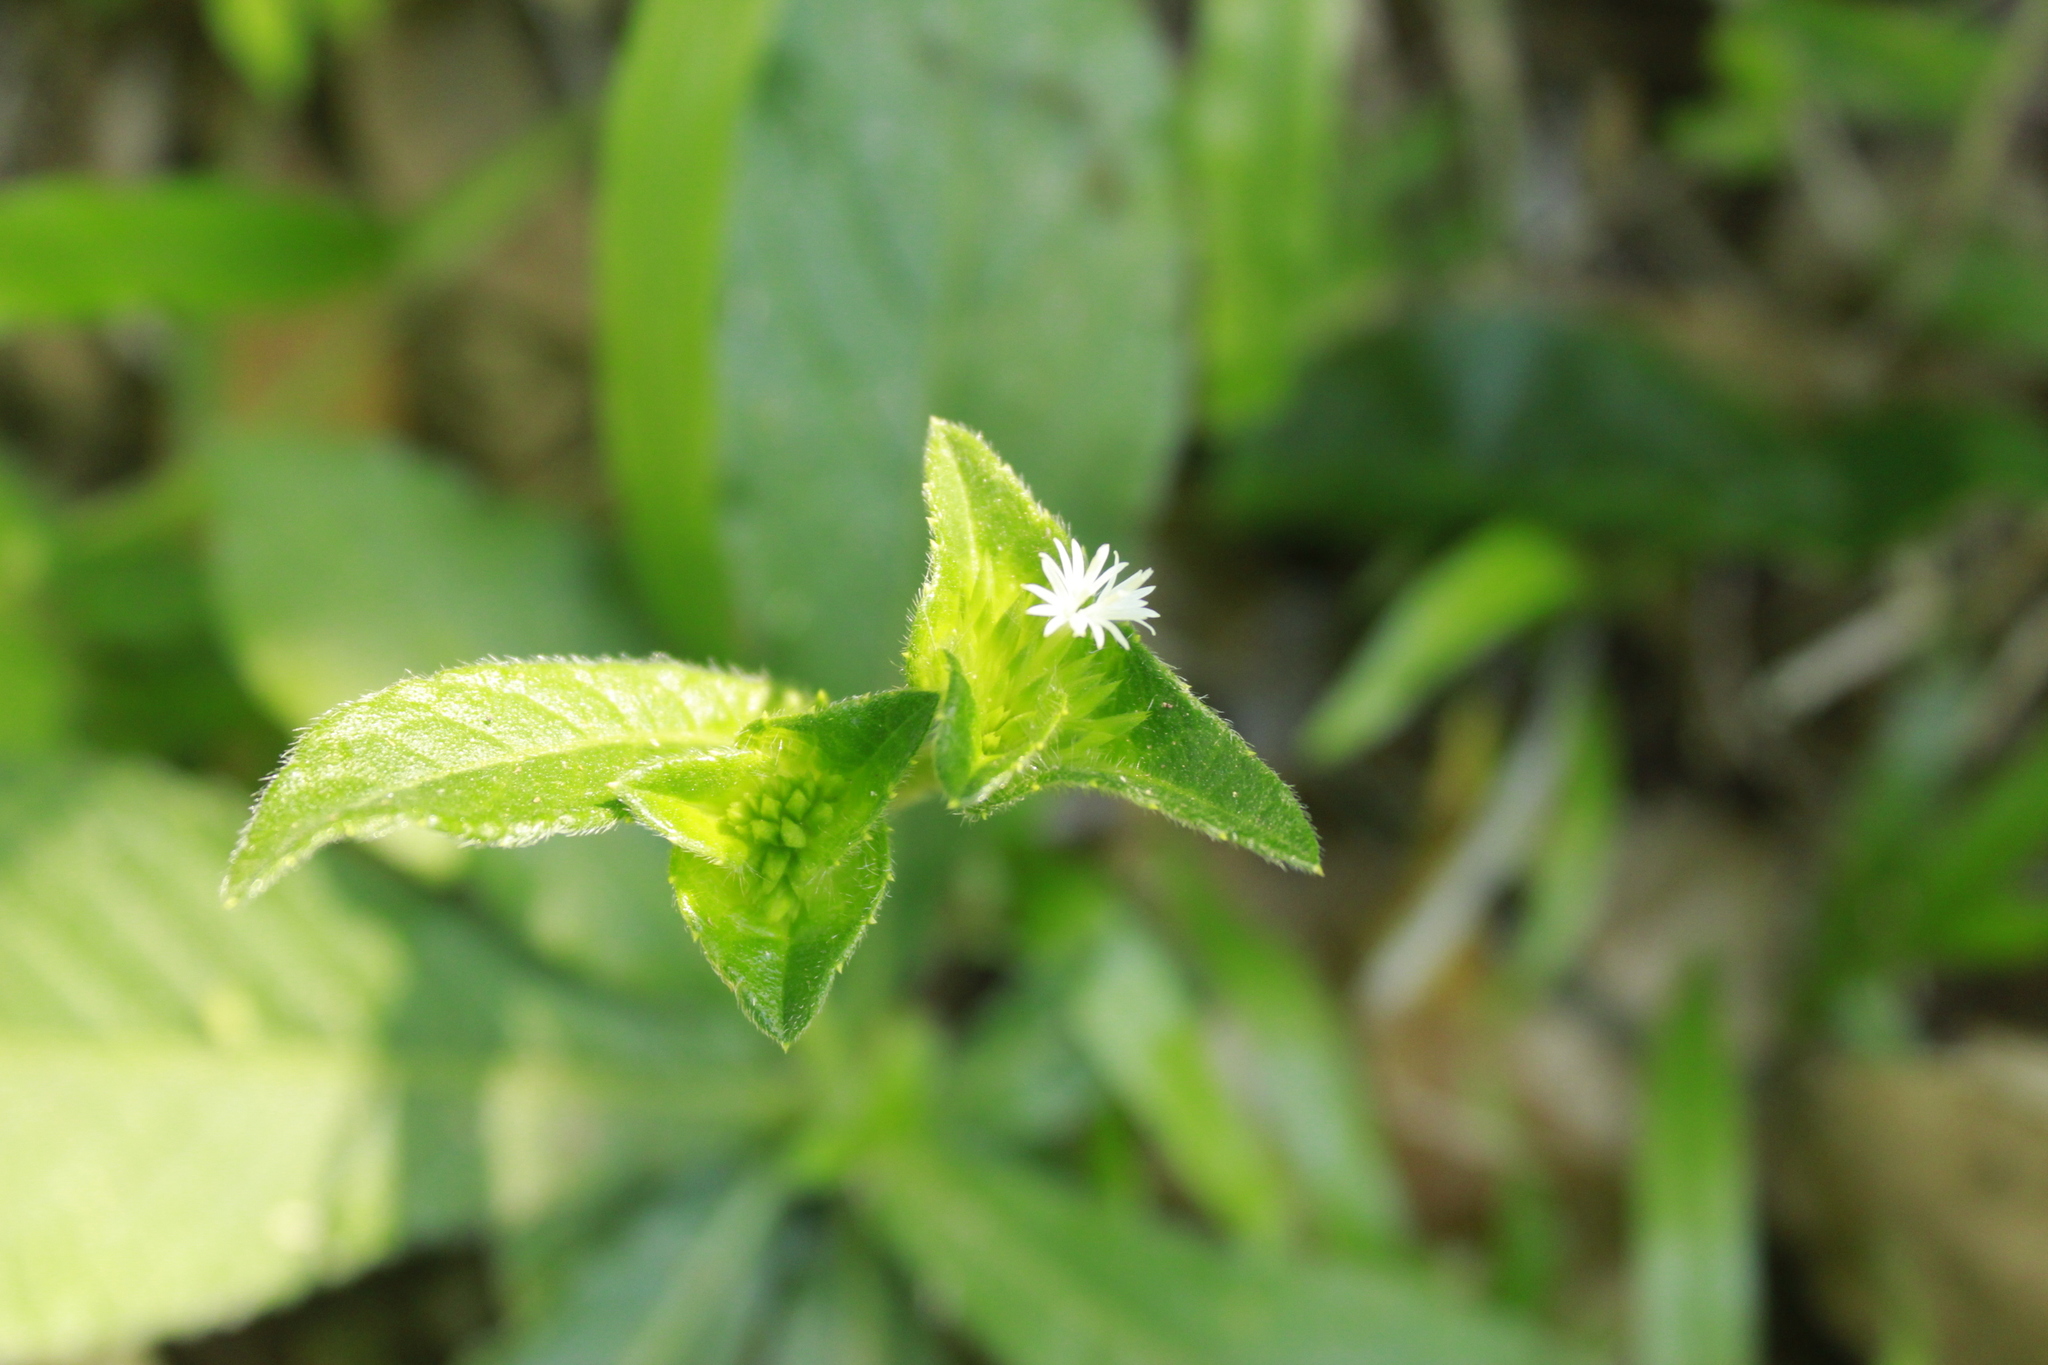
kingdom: Plantae
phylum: Tracheophyta
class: Magnoliopsida
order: Asterales
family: Asteraceae
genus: Elephantopus
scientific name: Elephantopus mollis
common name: Soft elephantsfoot
